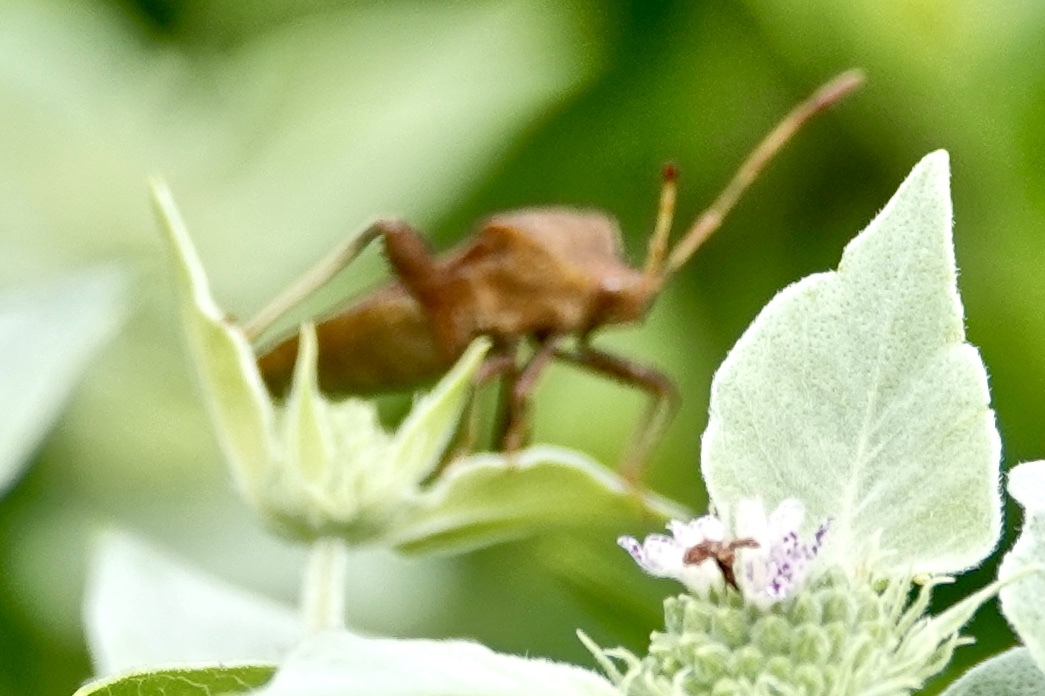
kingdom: Animalia
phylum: Arthropoda
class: Insecta
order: Hemiptera
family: Coreidae
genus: Euthochtha
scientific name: Euthochtha galeator
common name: Helmeted squash bug
